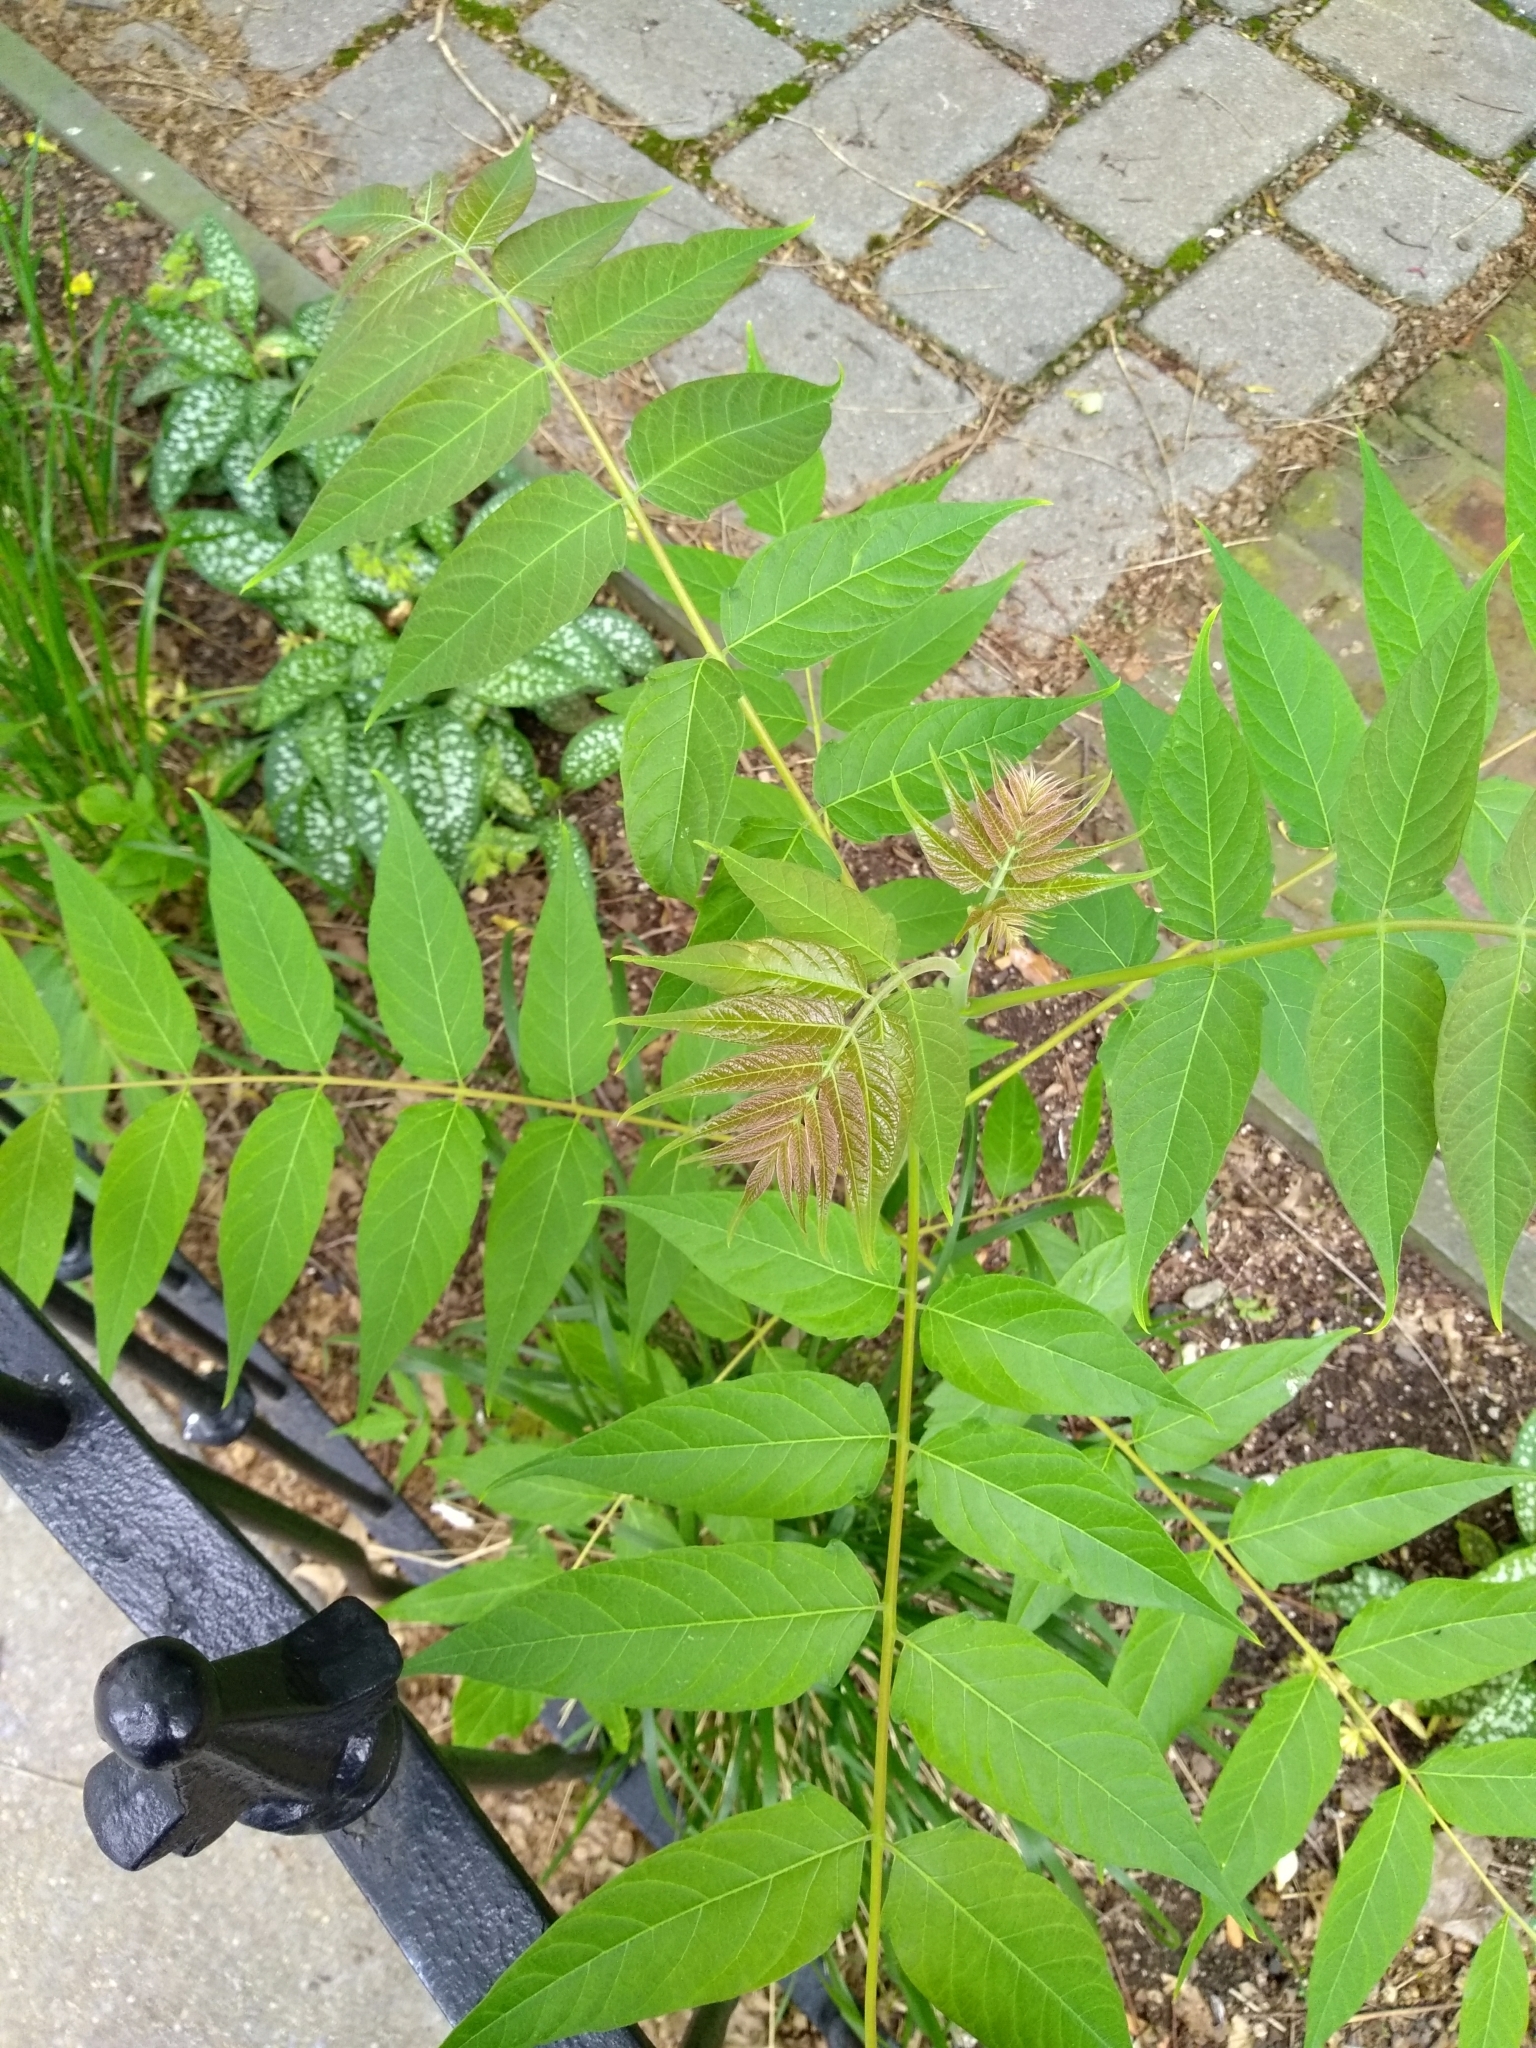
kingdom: Plantae
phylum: Tracheophyta
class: Magnoliopsida
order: Sapindales
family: Simaroubaceae
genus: Ailanthus
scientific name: Ailanthus altissima
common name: Tree-of-heaven
